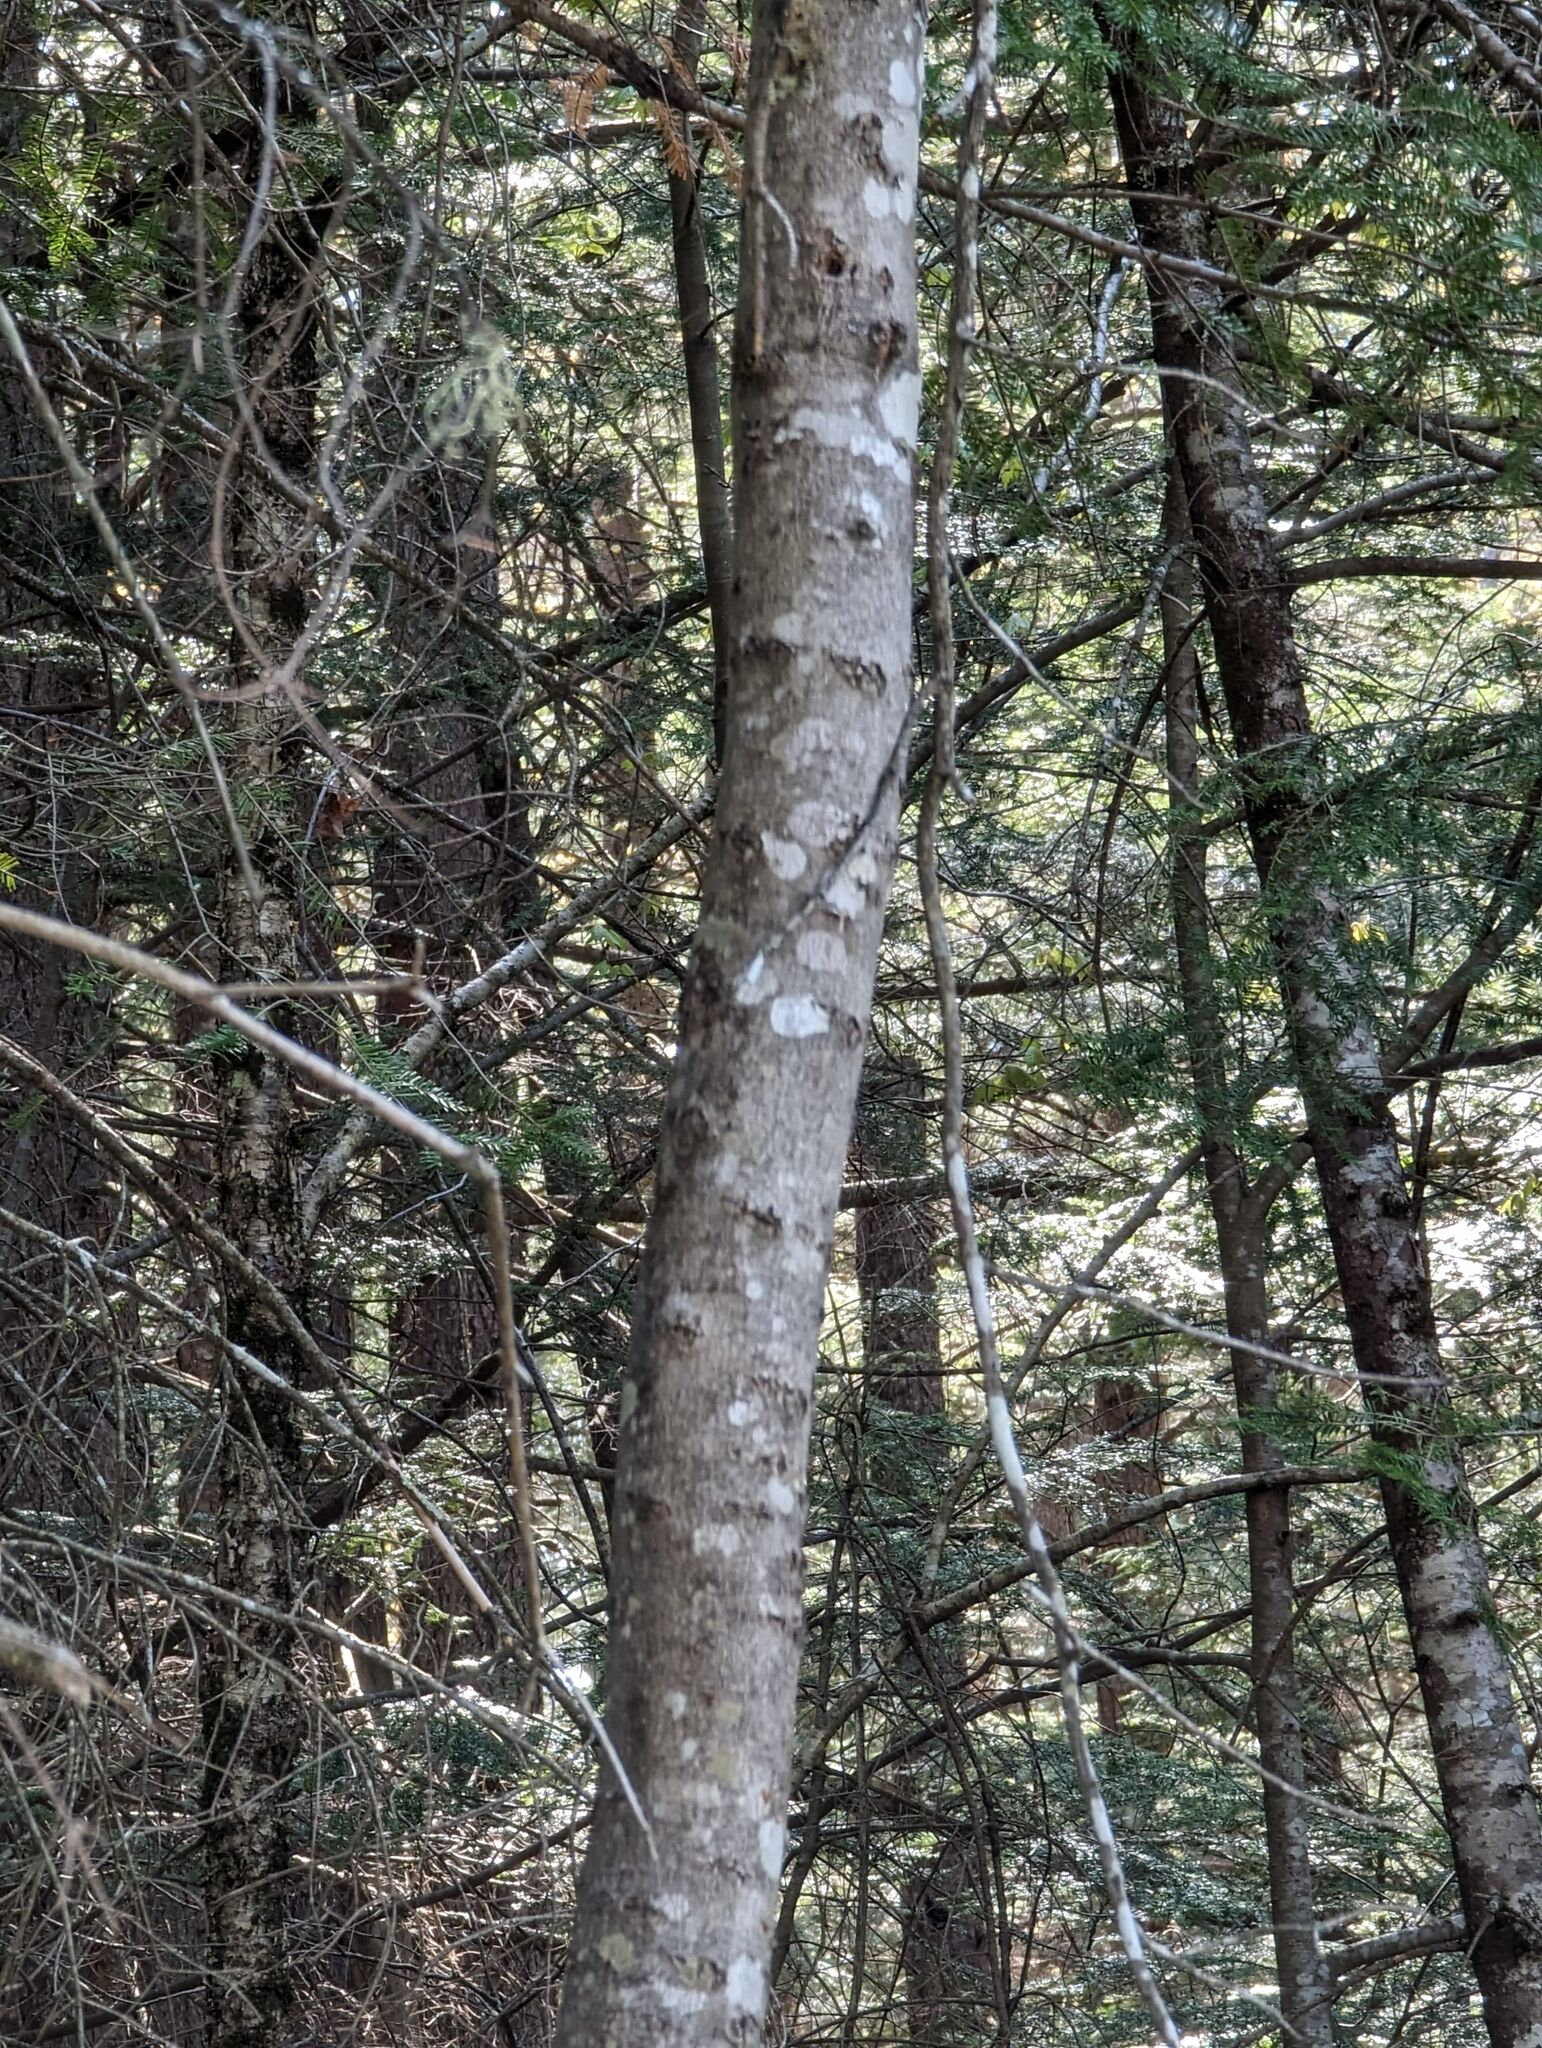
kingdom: Plantae
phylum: Tracheophyta
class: Magnoliopsida
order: Sapindales
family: Sapindaceae
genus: Acer
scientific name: Acer rubrum
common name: Red maple
